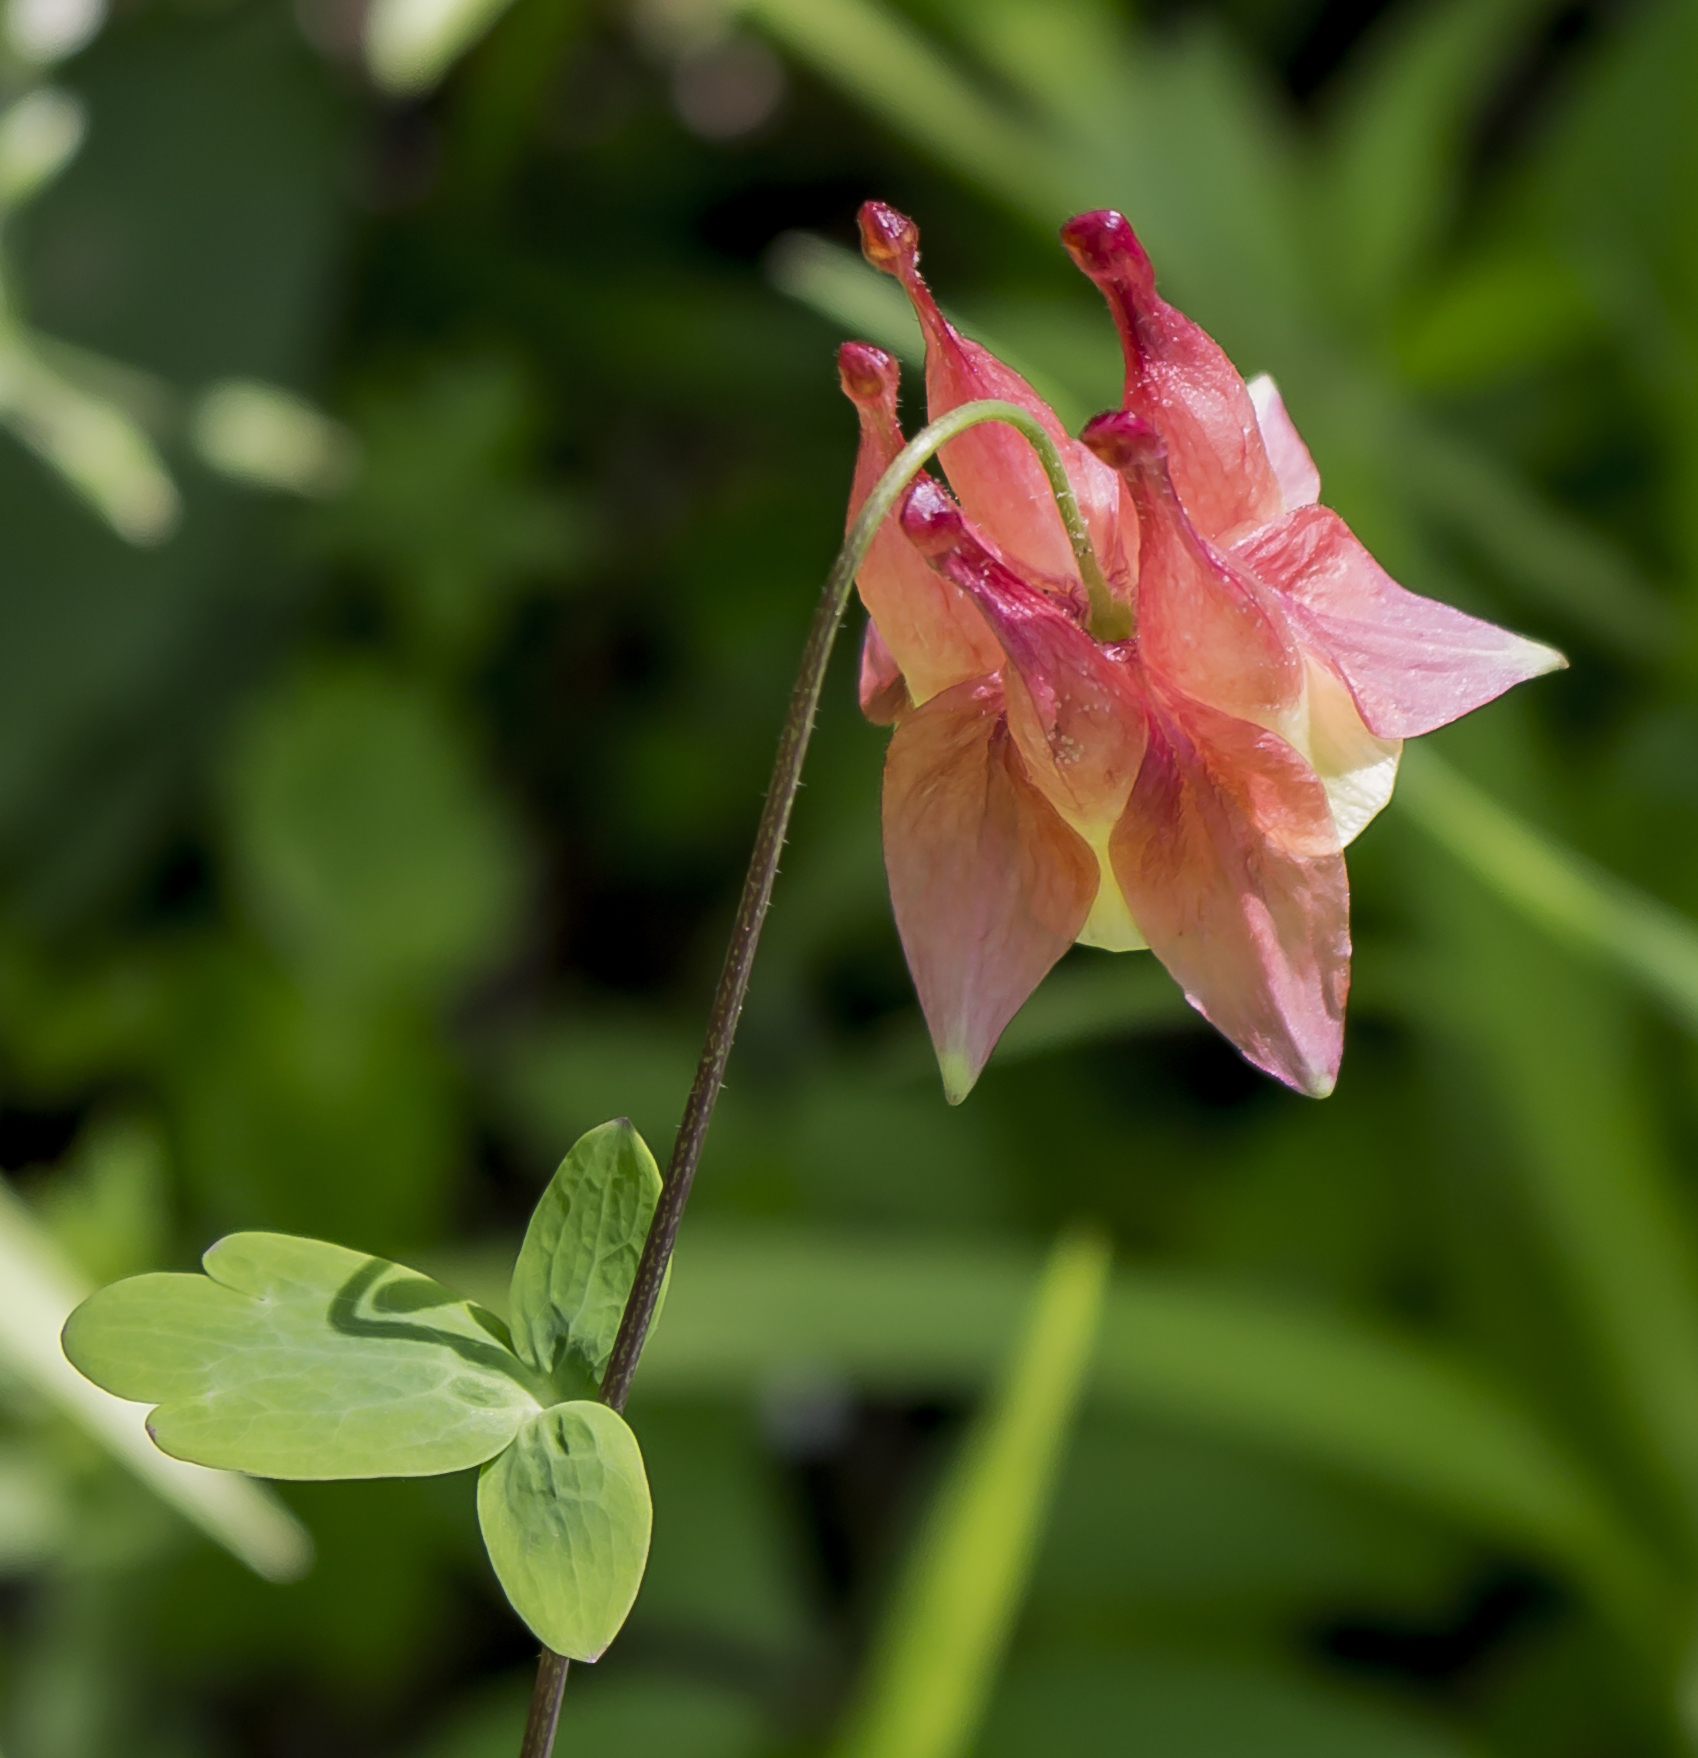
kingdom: Plantae
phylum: Tracheophyta
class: Magnoliopsida
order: Ranunculales
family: Ranunculaceae
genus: Aquilegia
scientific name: Aquilegia canadensis
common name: American columbine
